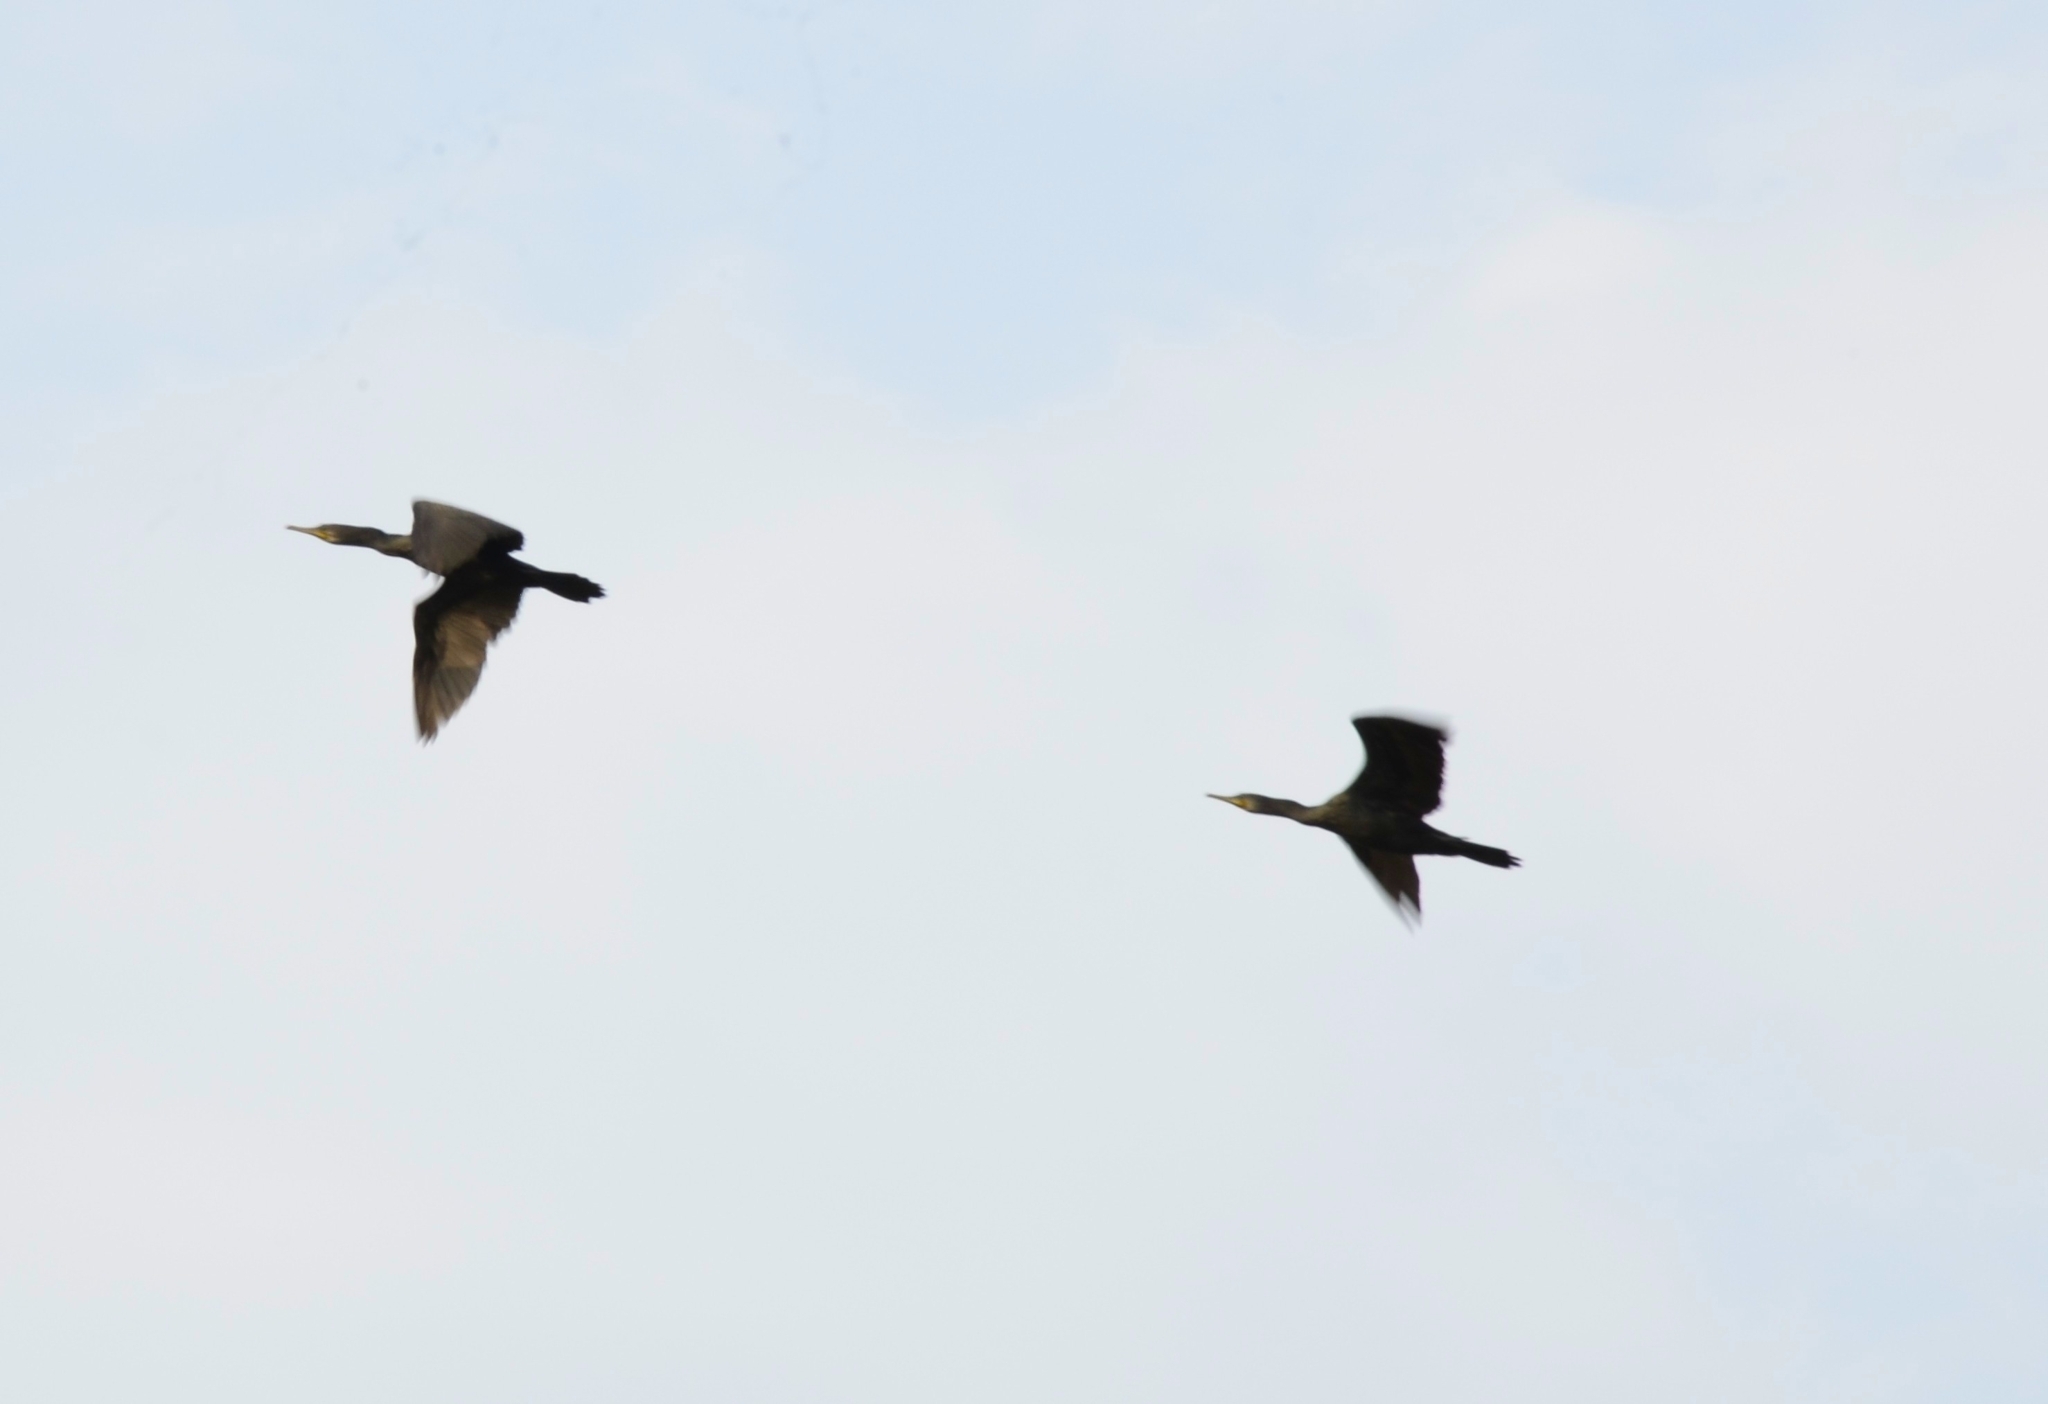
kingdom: Animalia
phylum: Chordata
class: Aves
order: Suliformes
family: Phalacrocoracidae
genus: Phalacrocorax
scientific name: Phalacrocorax fuscicollis
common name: Indian cormorant
